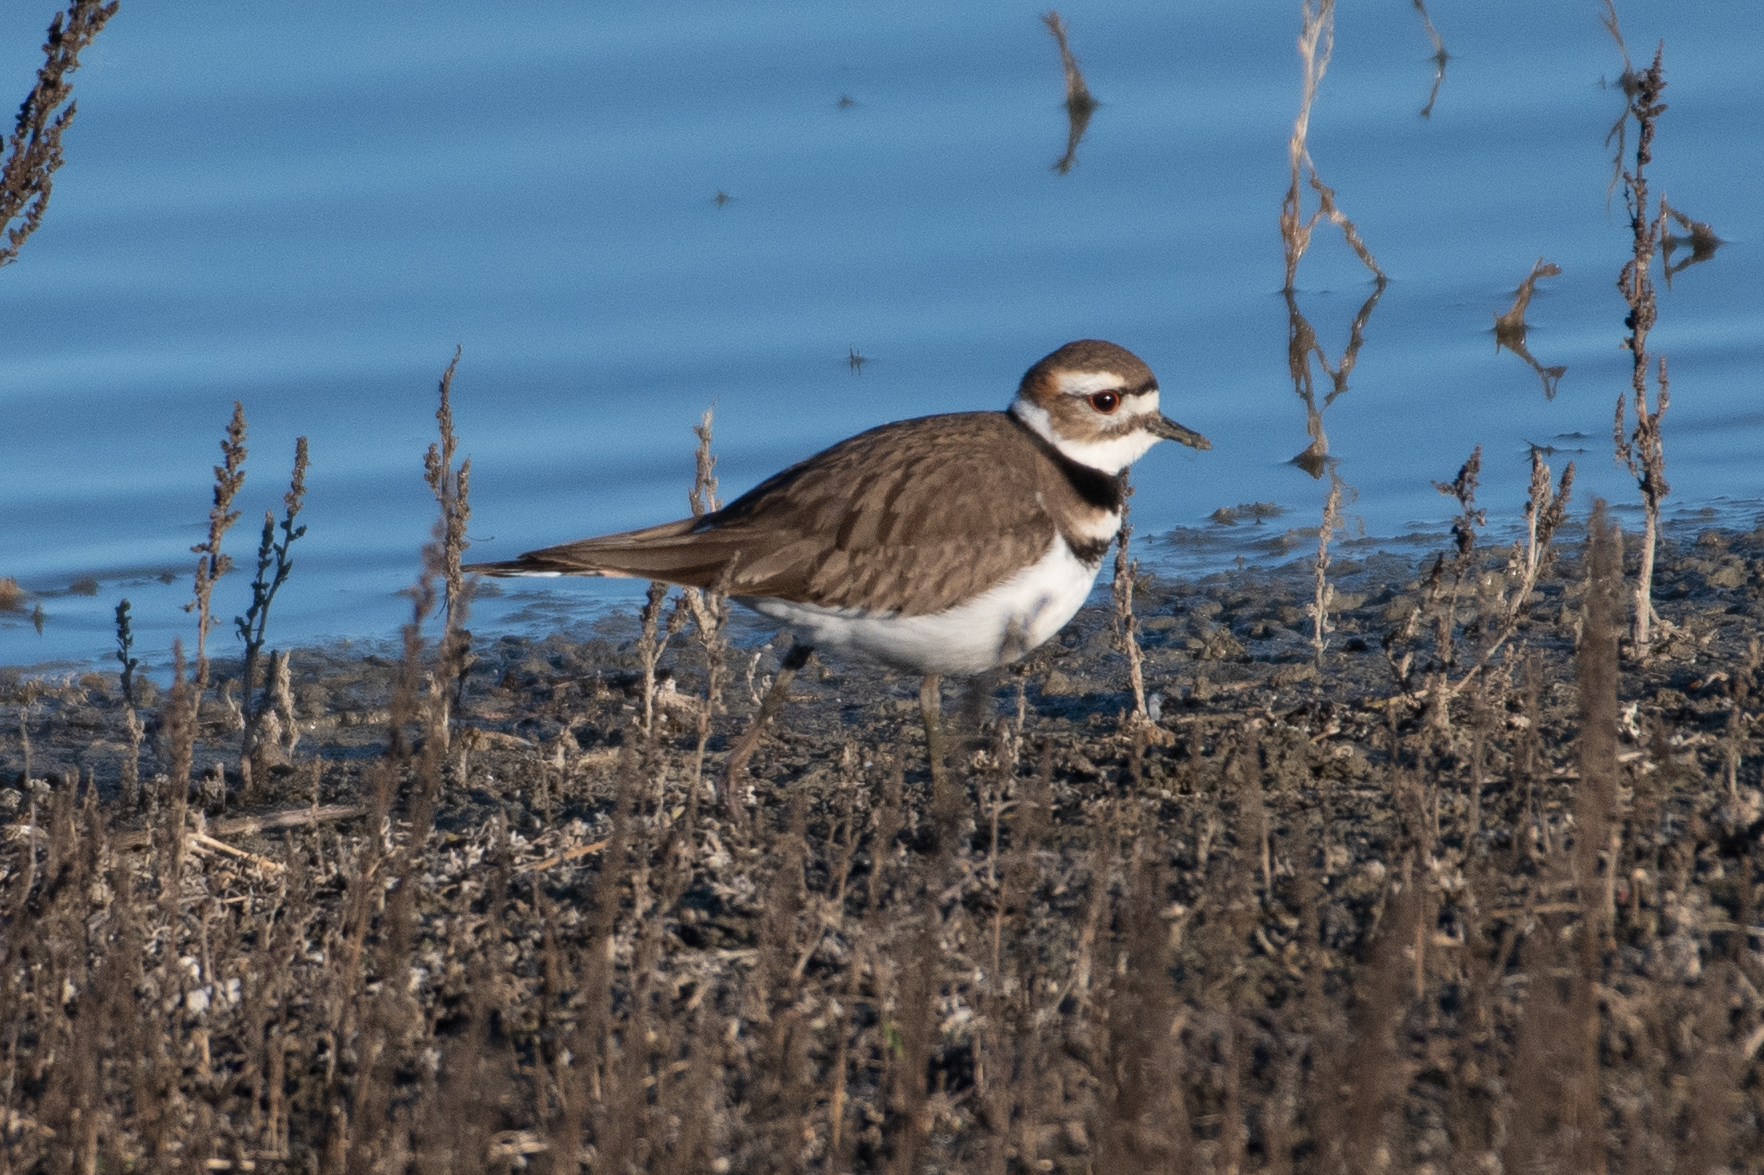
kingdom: Animalia
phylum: Chordata
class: Aves
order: Charadriiformes
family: Charadriidae
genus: Charadrius
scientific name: Charadrius vociferus
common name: Killdeer
